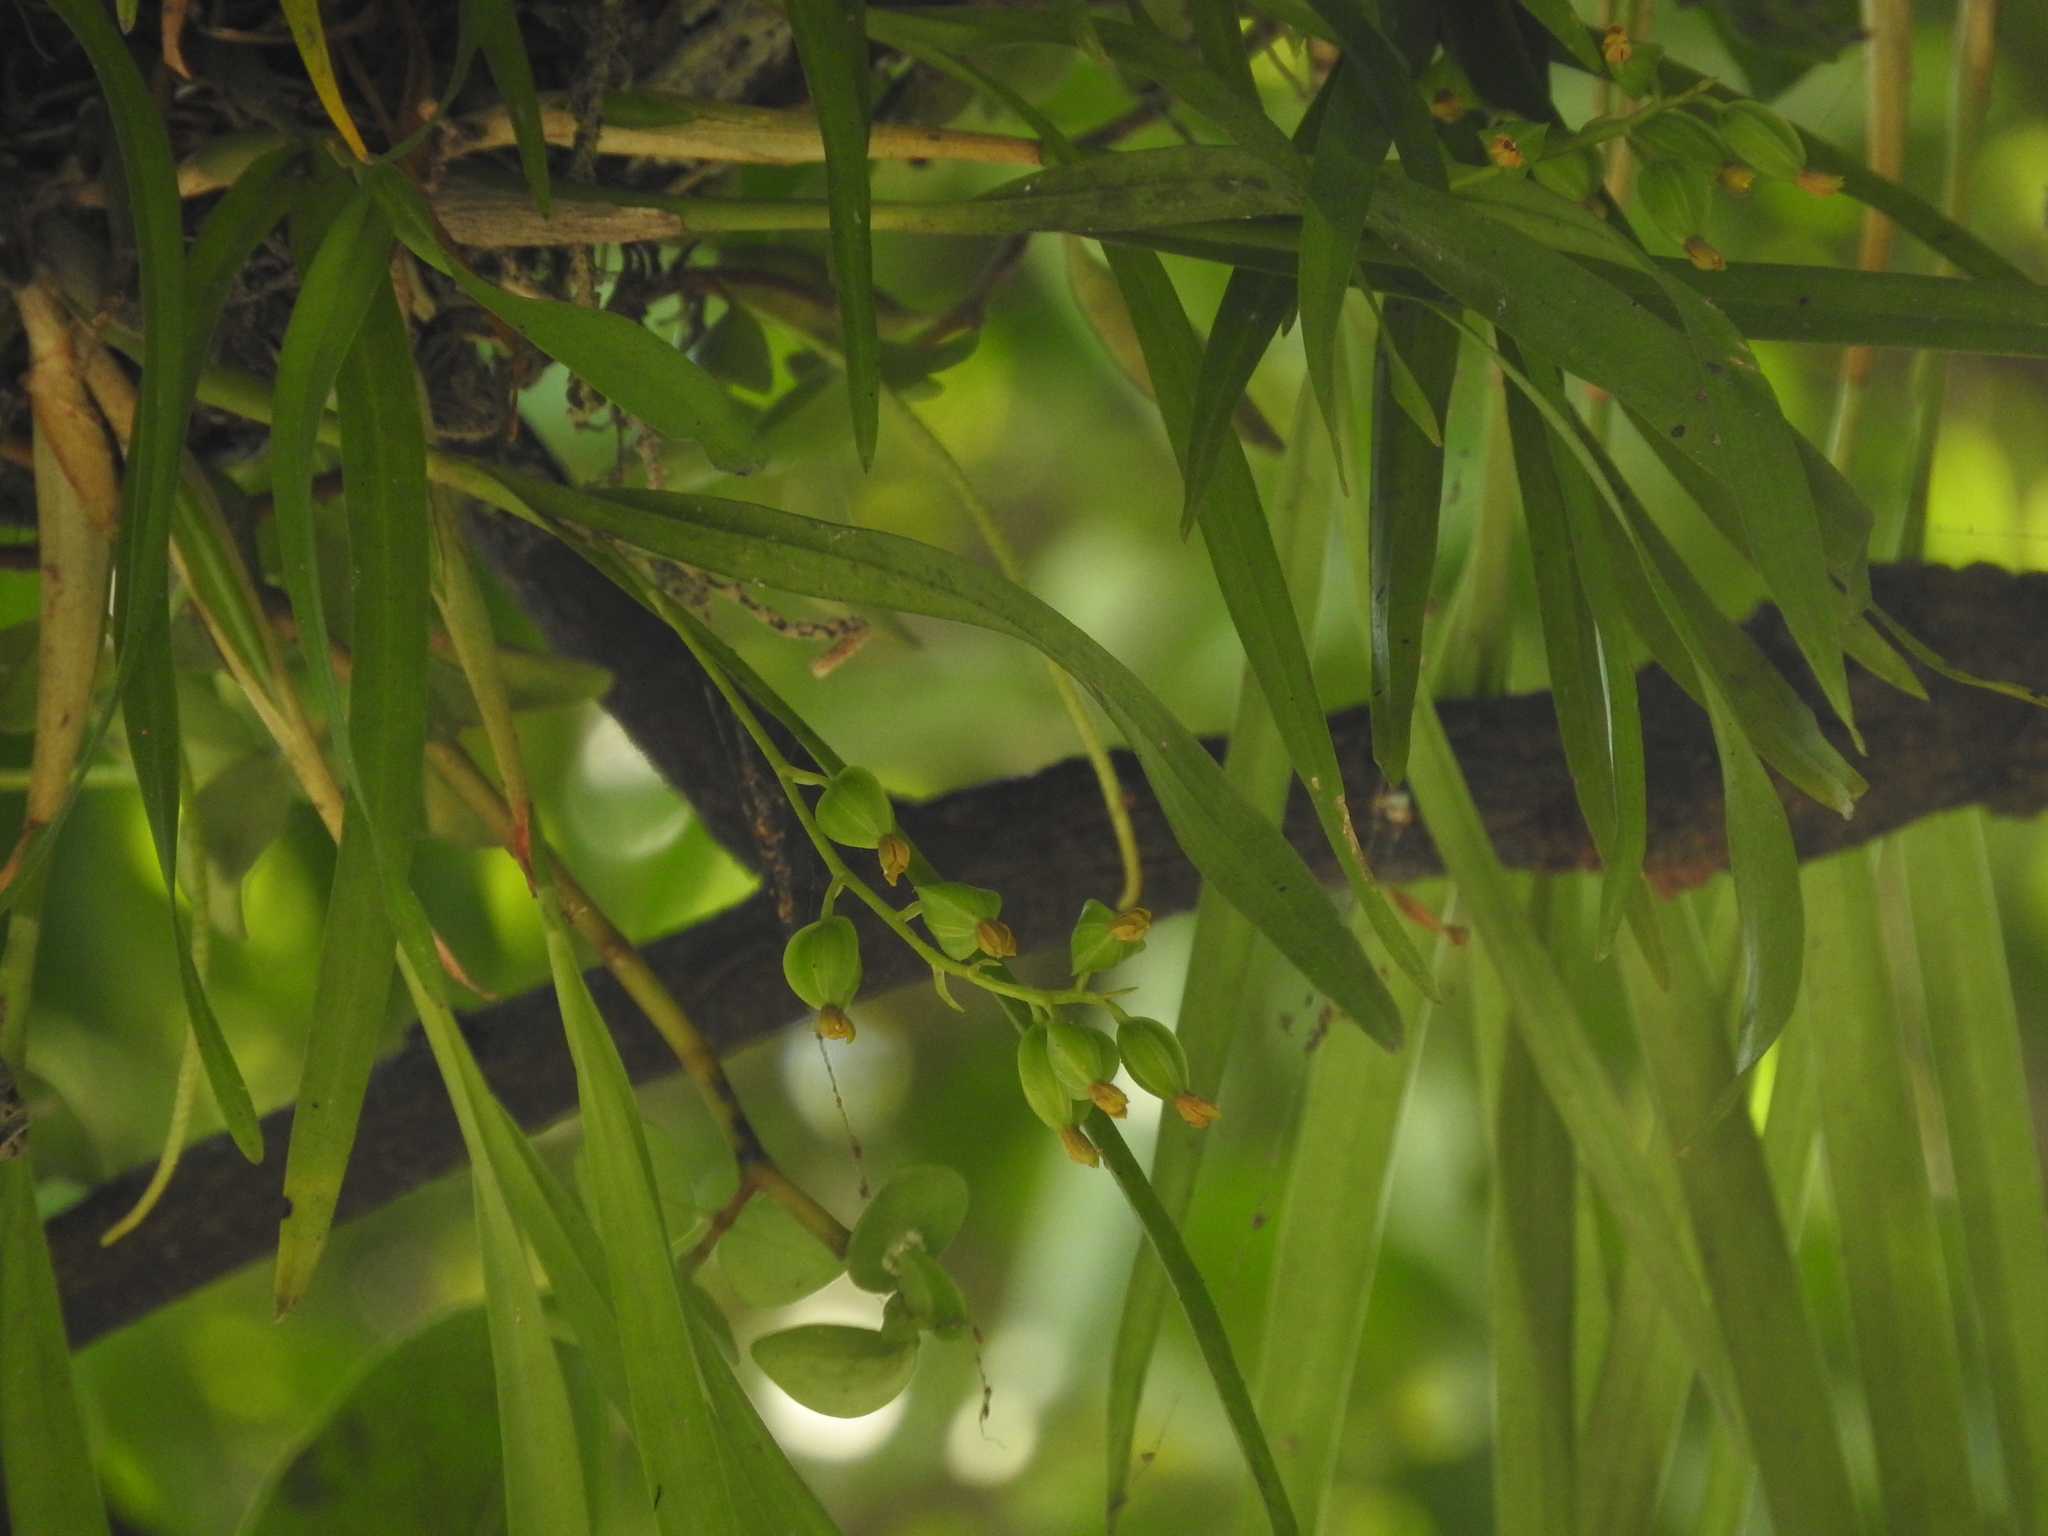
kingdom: Plantae
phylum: Tracheophyta
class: Liliopsida
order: Asparagales
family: Orchidaceae
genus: Prosthechea
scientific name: Prosthechea ochracea
